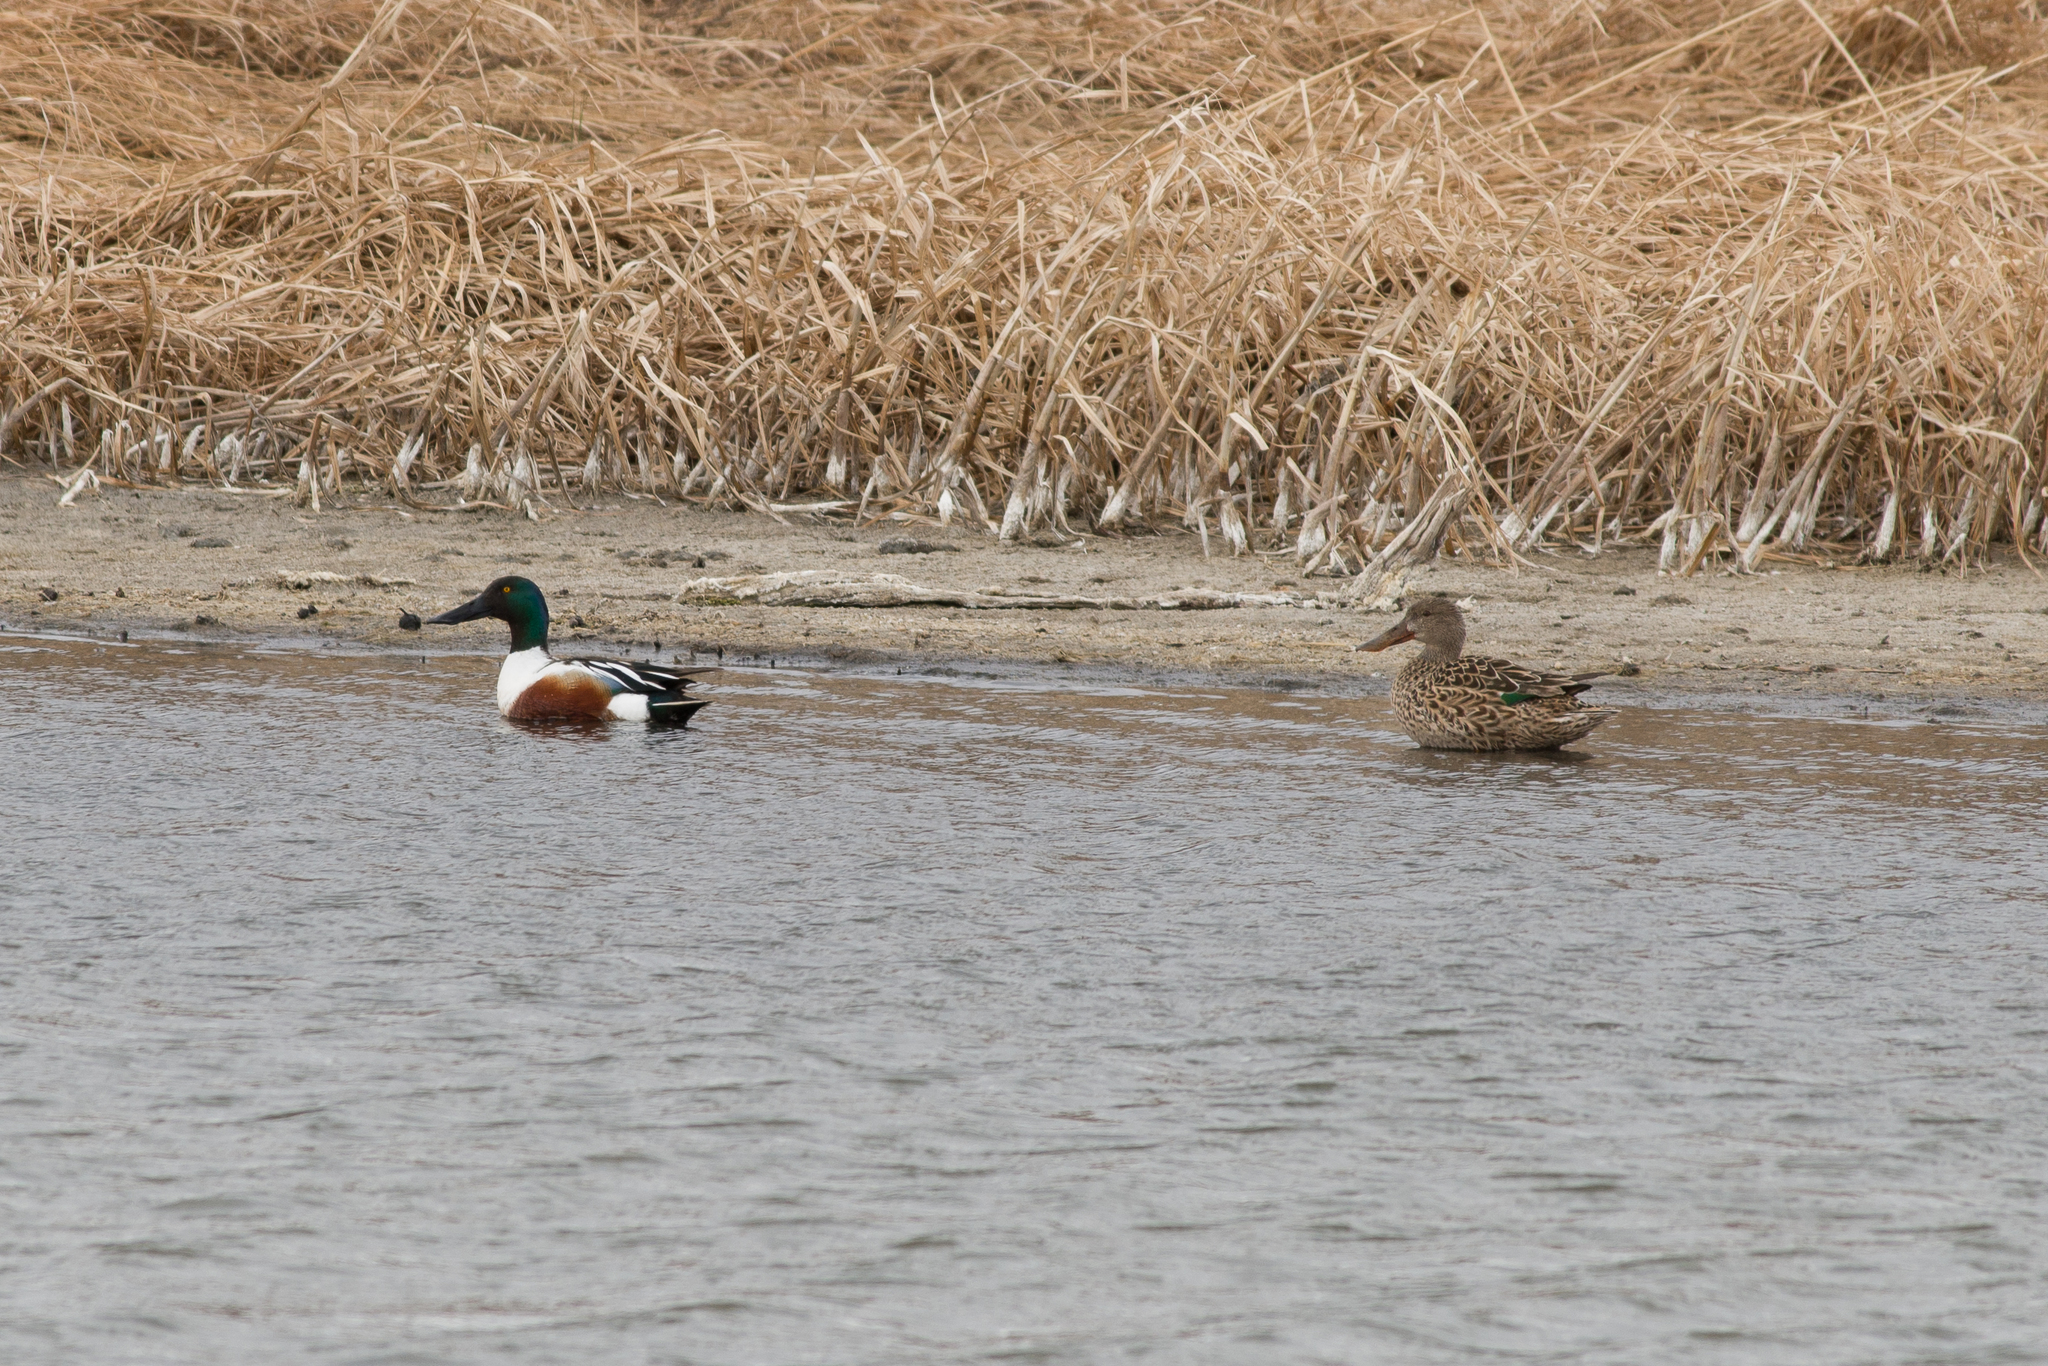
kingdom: Animalia
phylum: Chordata
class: Aves
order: Anseriformes
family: Anatidae
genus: Spatula
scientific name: Spatula clypeata
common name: Northern shoveler
